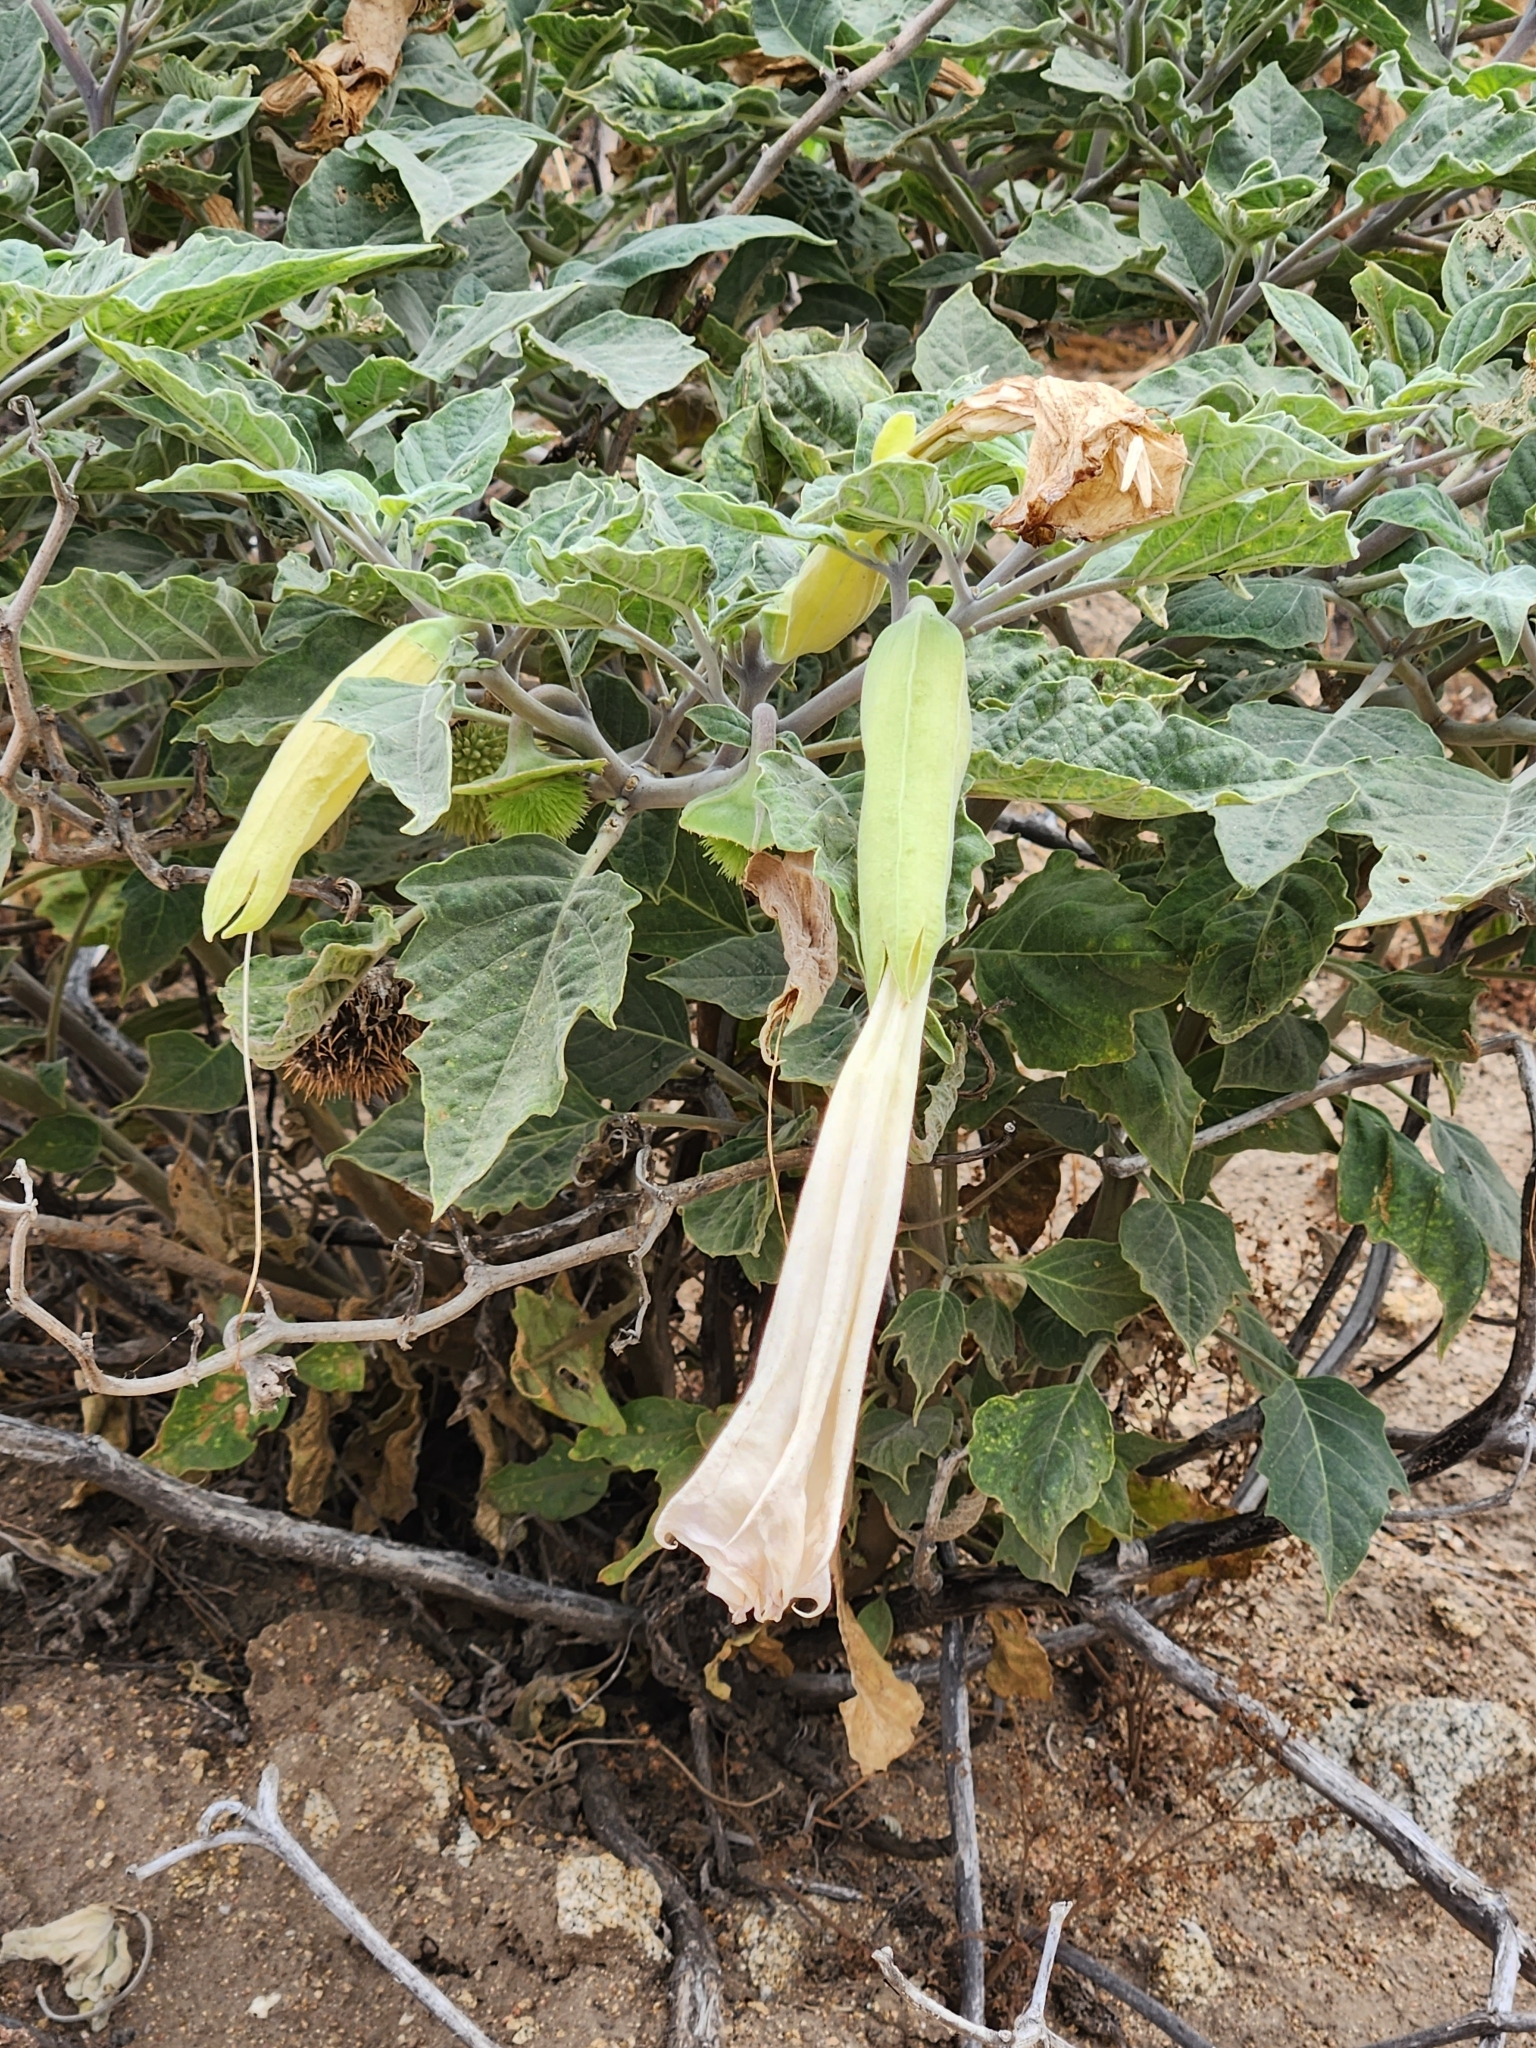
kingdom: Plantae
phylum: Tracheophyta
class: Magnoliopsida
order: Solanales
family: Solanaceae
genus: Datura
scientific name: Datura wrightii
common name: Sacred thorn-apple
